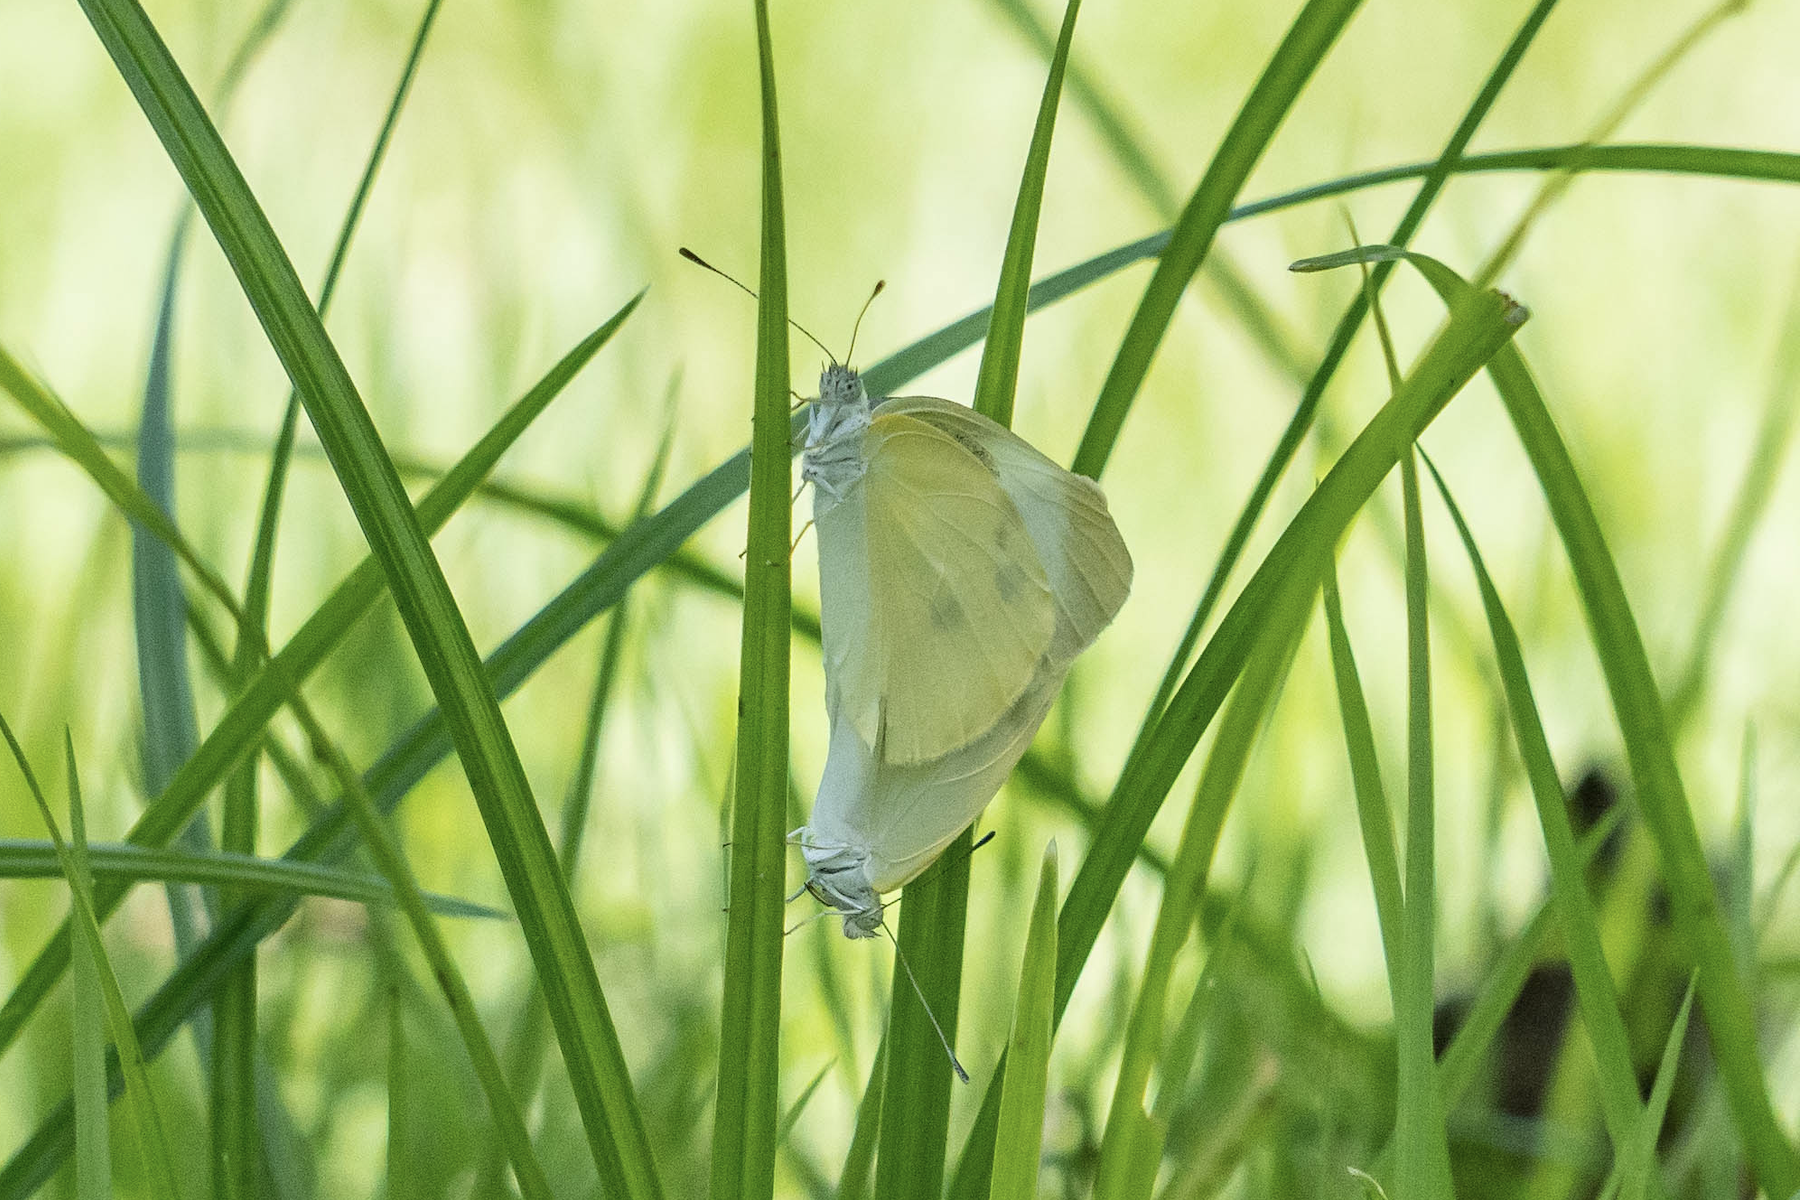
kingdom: Animalia
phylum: Arthropoda
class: Insecta
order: Lepidoptera
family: Pieridae
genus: Pieris
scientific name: Pieris rapae
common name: Small white
